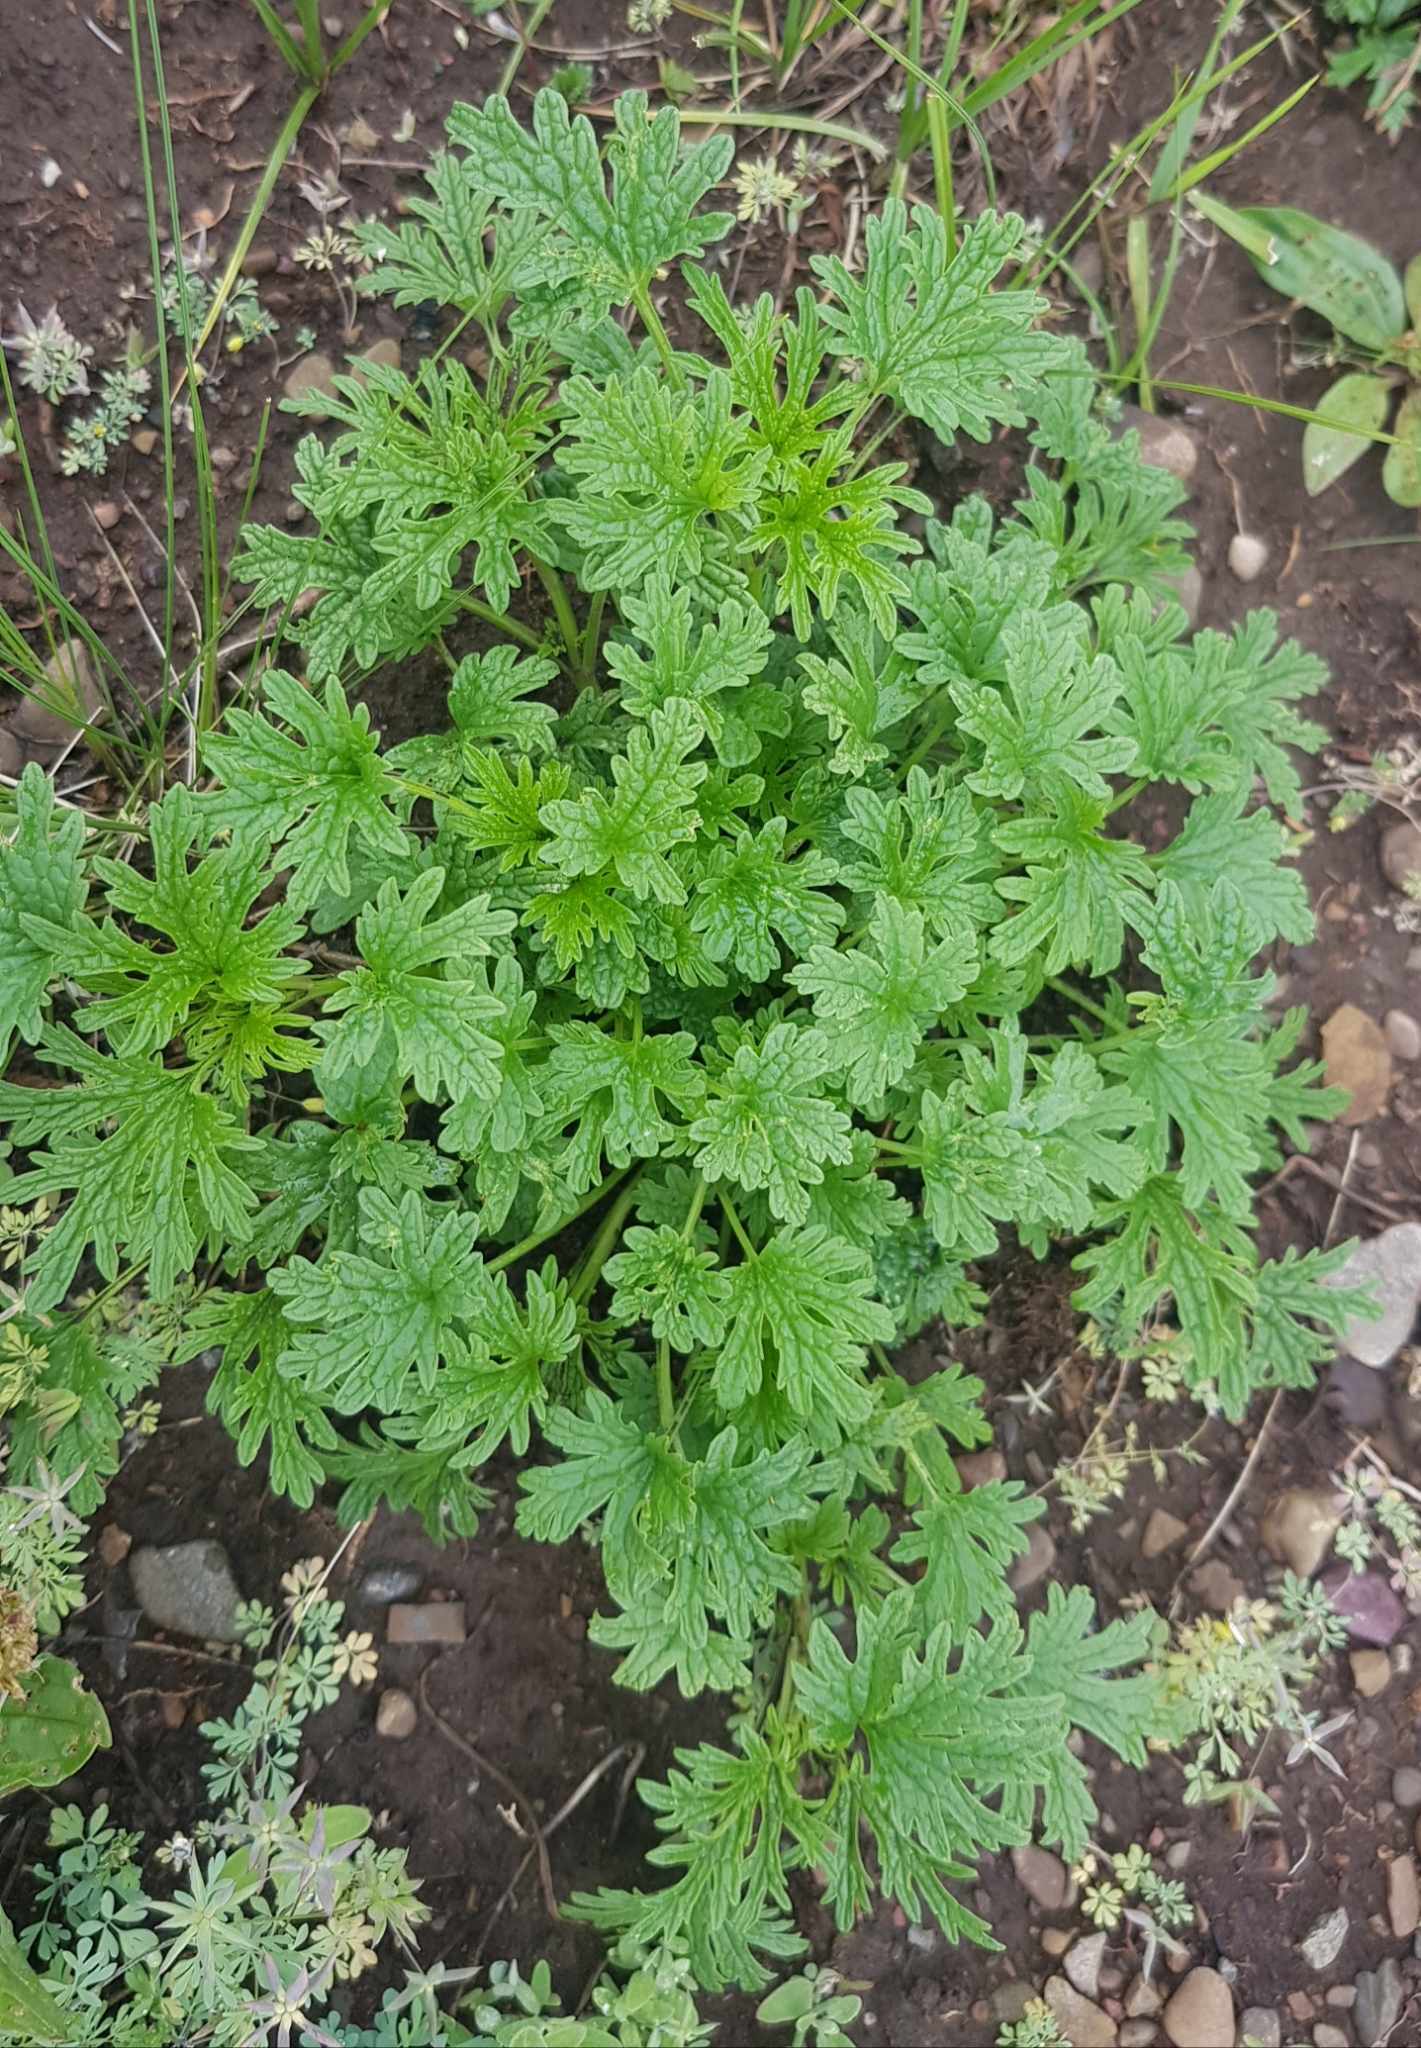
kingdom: Plantae
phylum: Tracheophyta
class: Magnoliopsida
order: Lamiales
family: Lamiaceae
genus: Panzerina
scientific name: Panzerina lanata
